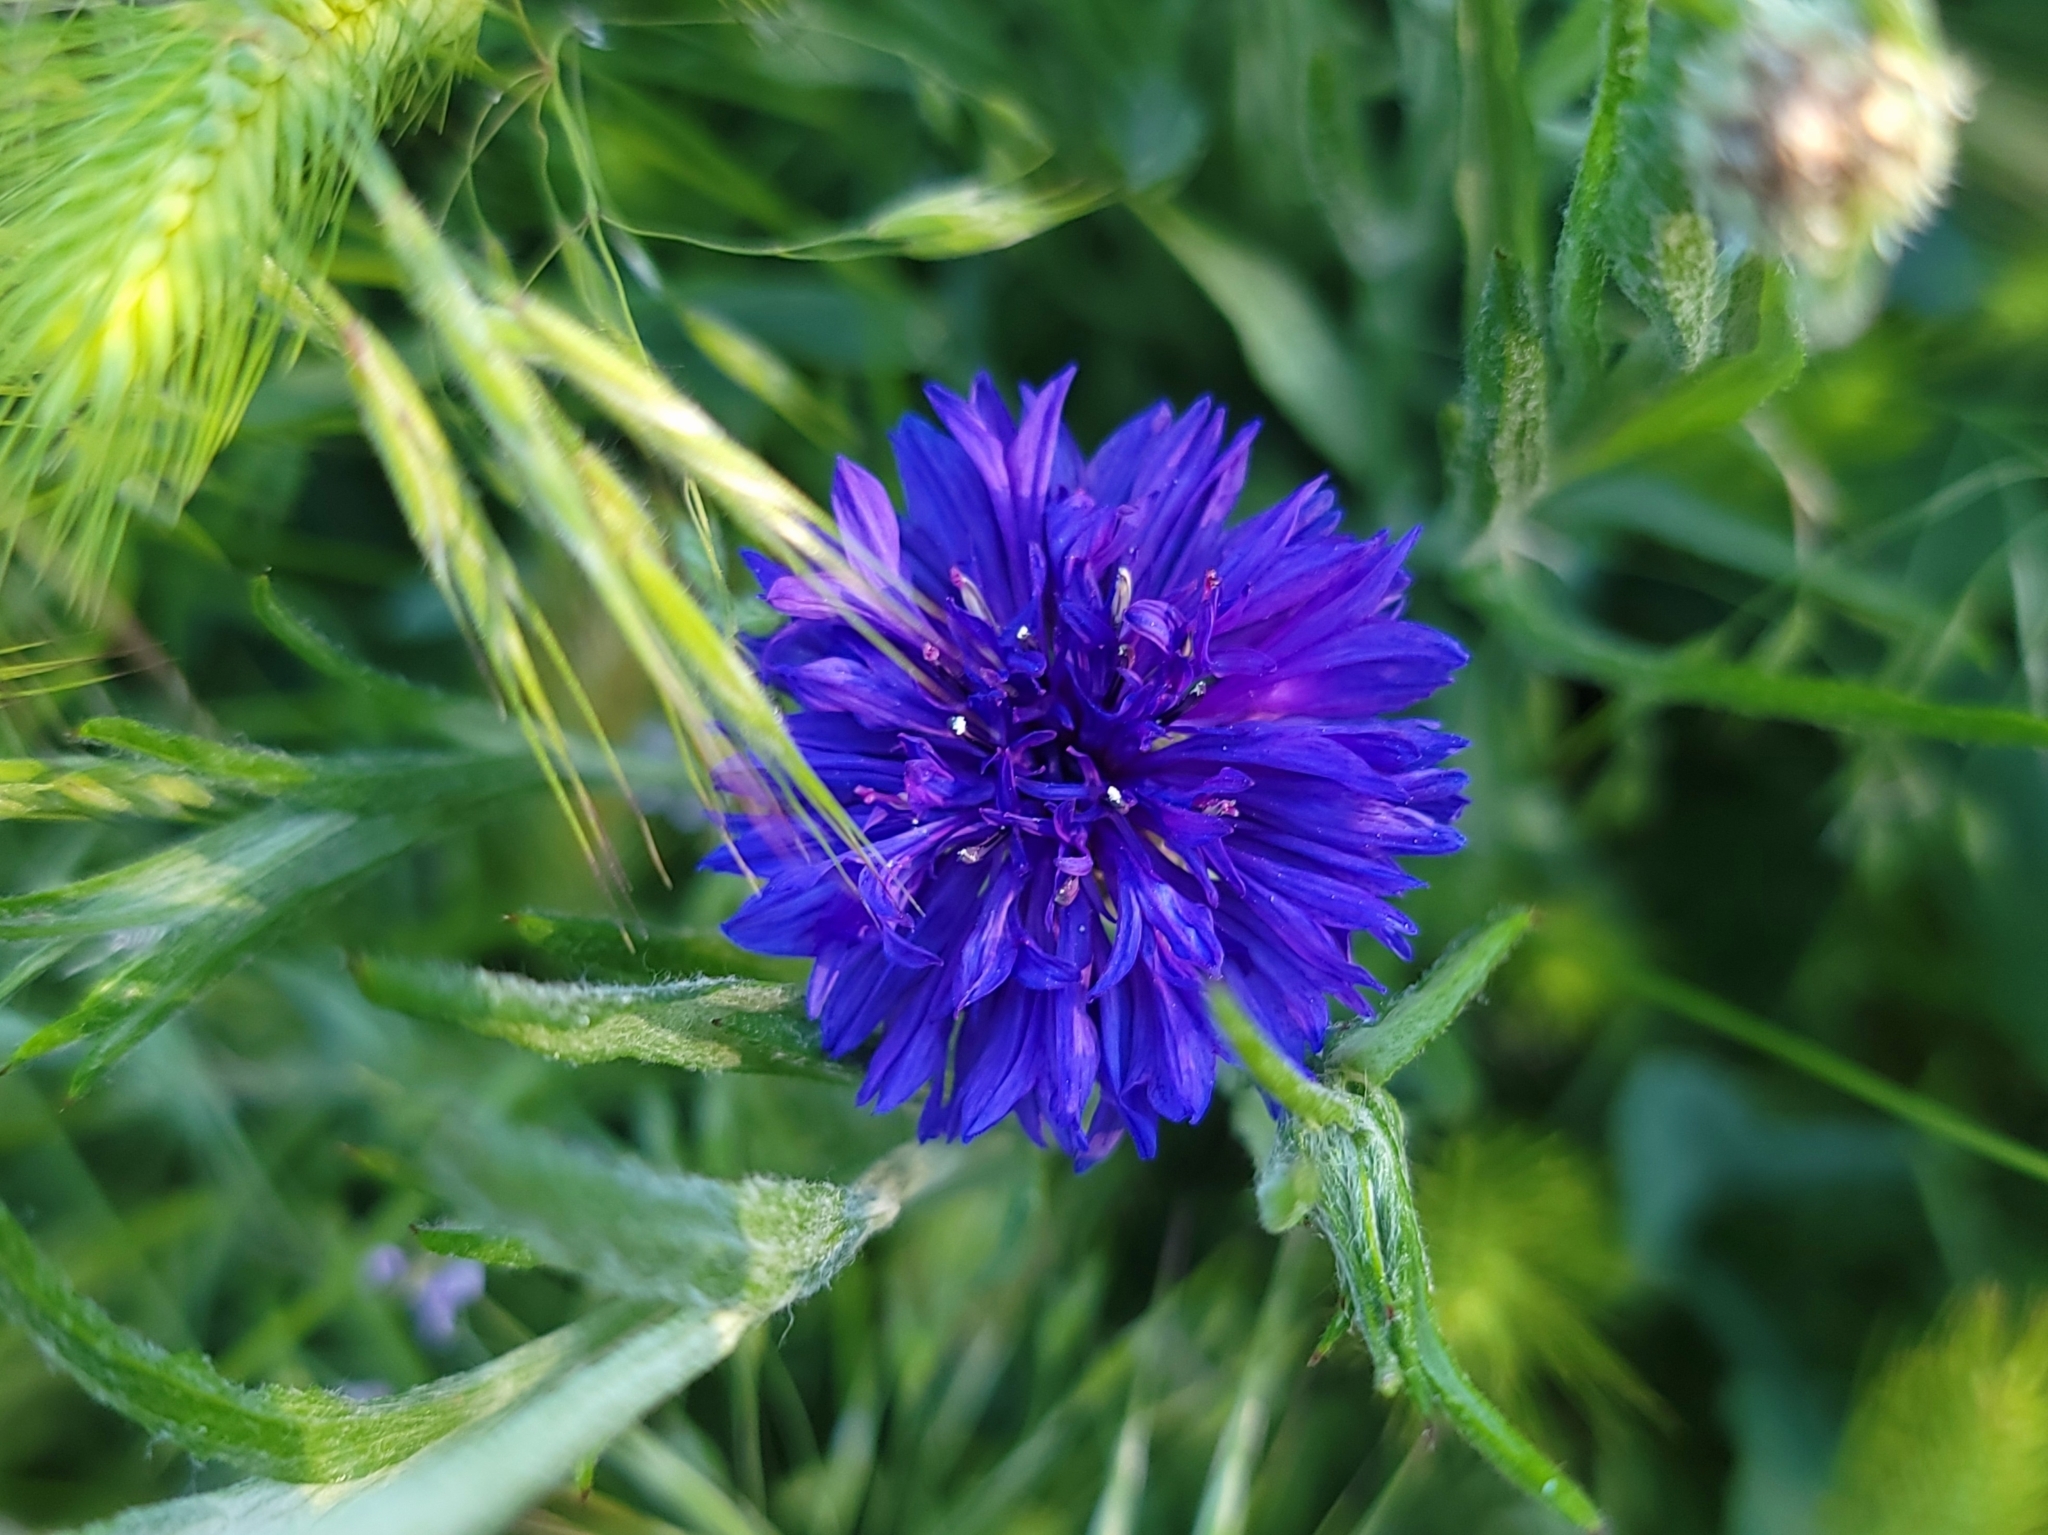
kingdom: Plantae
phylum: Tracheophyta
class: Magnoliopsida
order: Asterales
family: Asteraceae
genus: Centaurea
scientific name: Centaurea cyanus
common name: Cornflower
